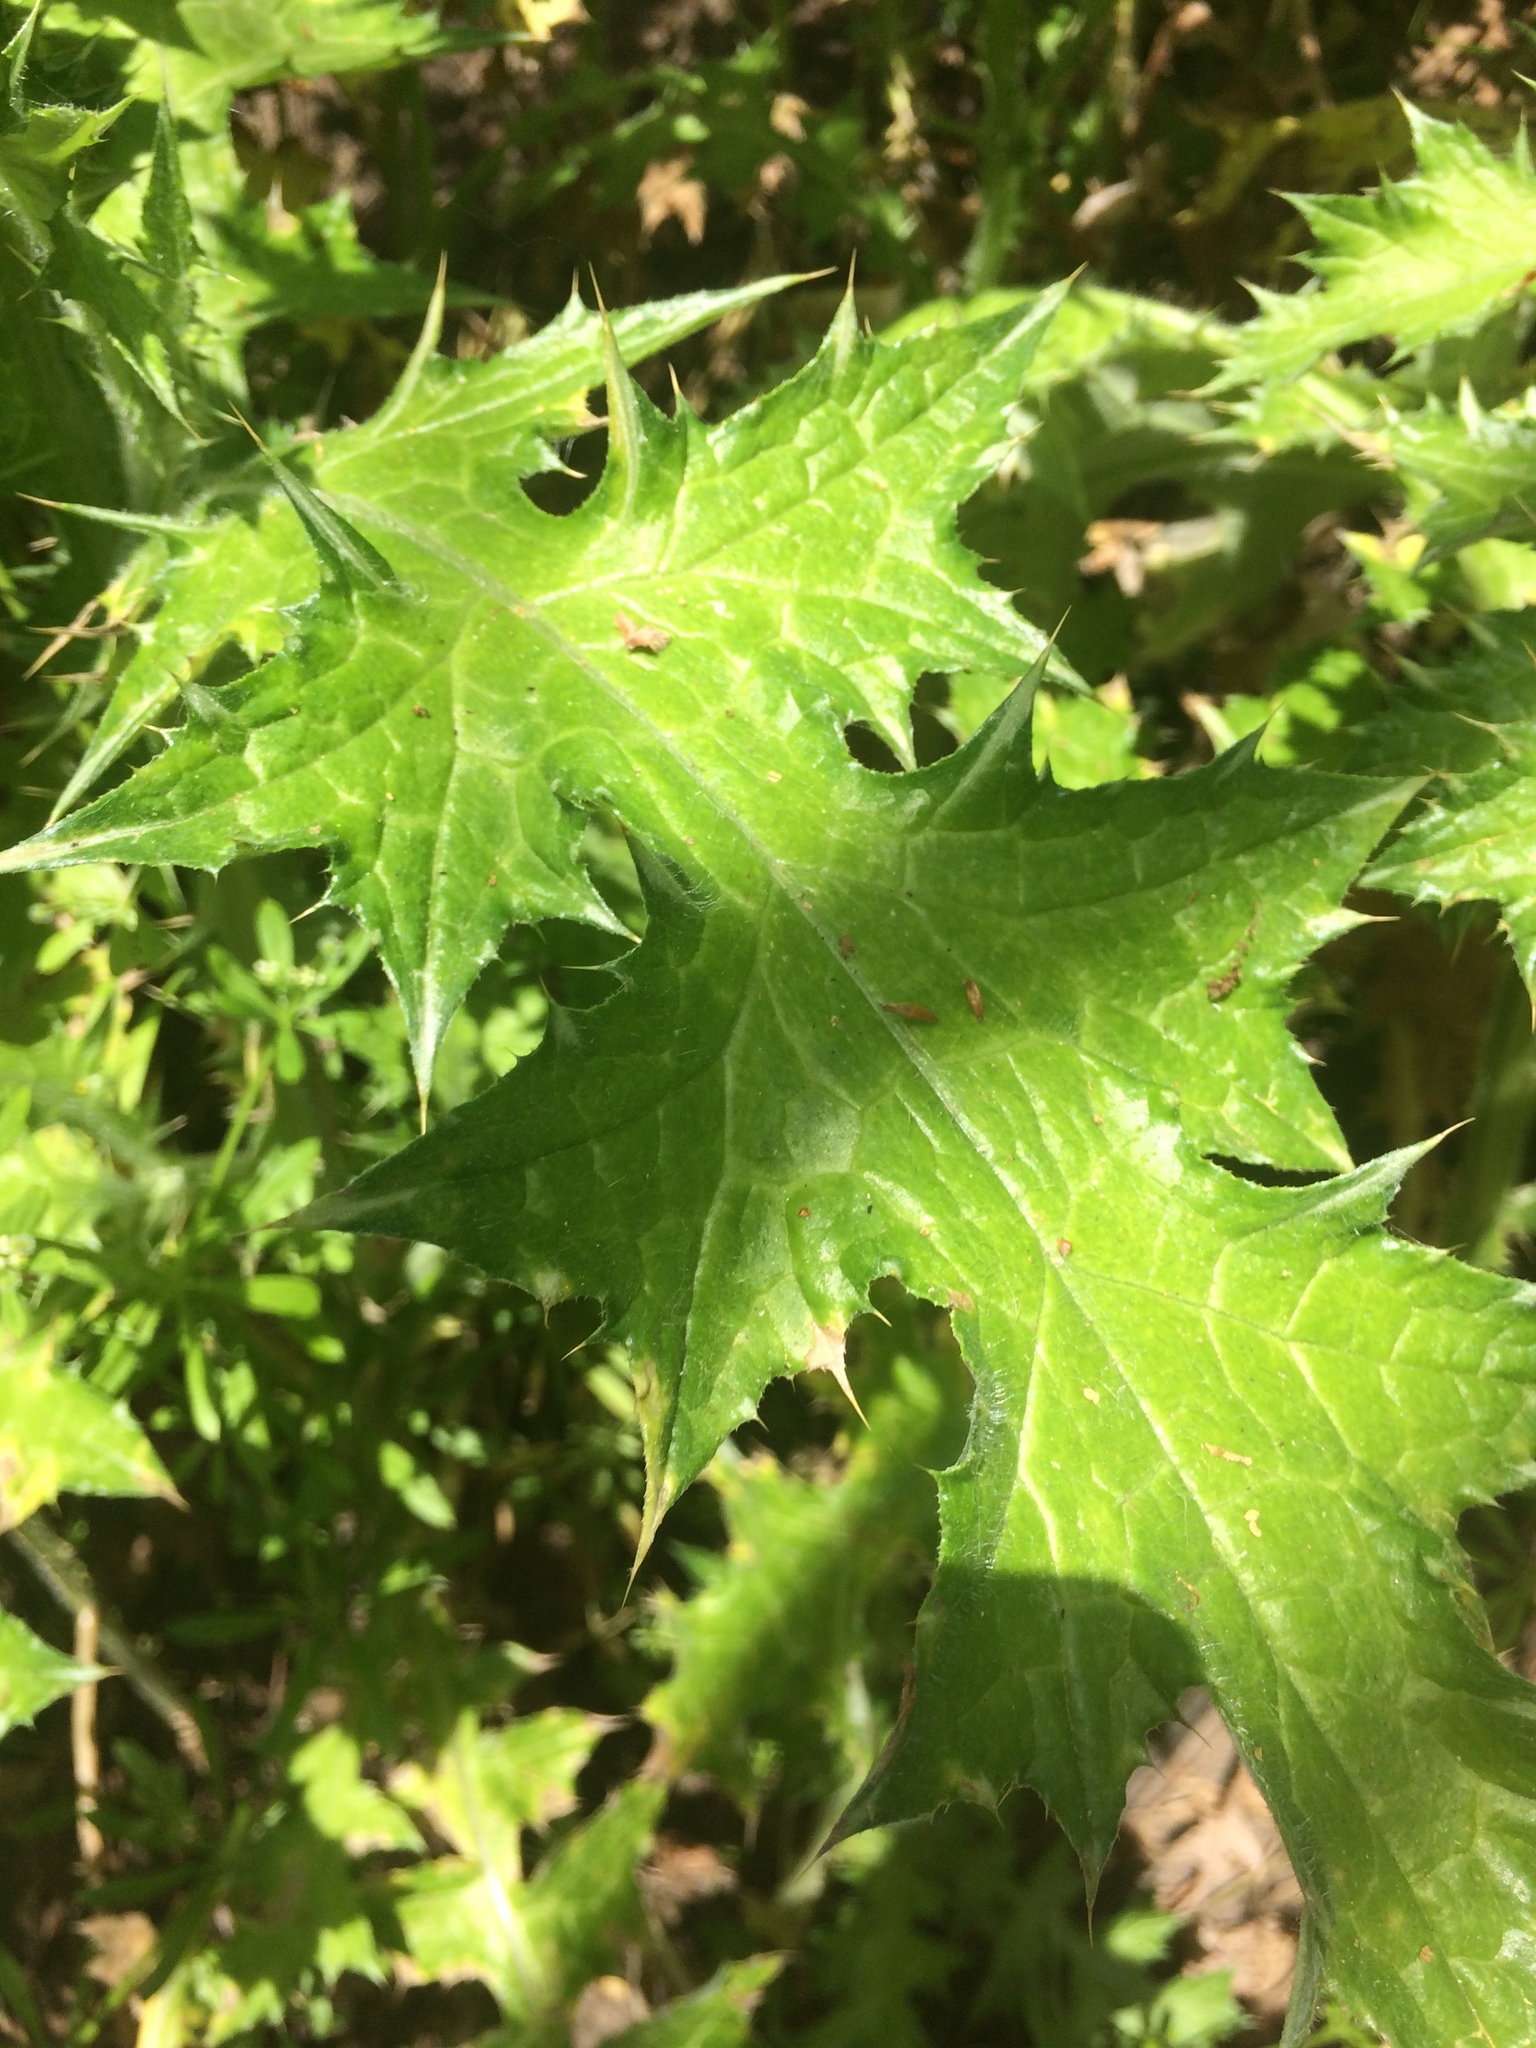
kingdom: Plantae
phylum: Tracheophyta
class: Magnoliopsida
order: Asterales
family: Asteraceae
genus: Carduus
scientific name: Carduus pycnocephalus
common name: Plymouth thistle
